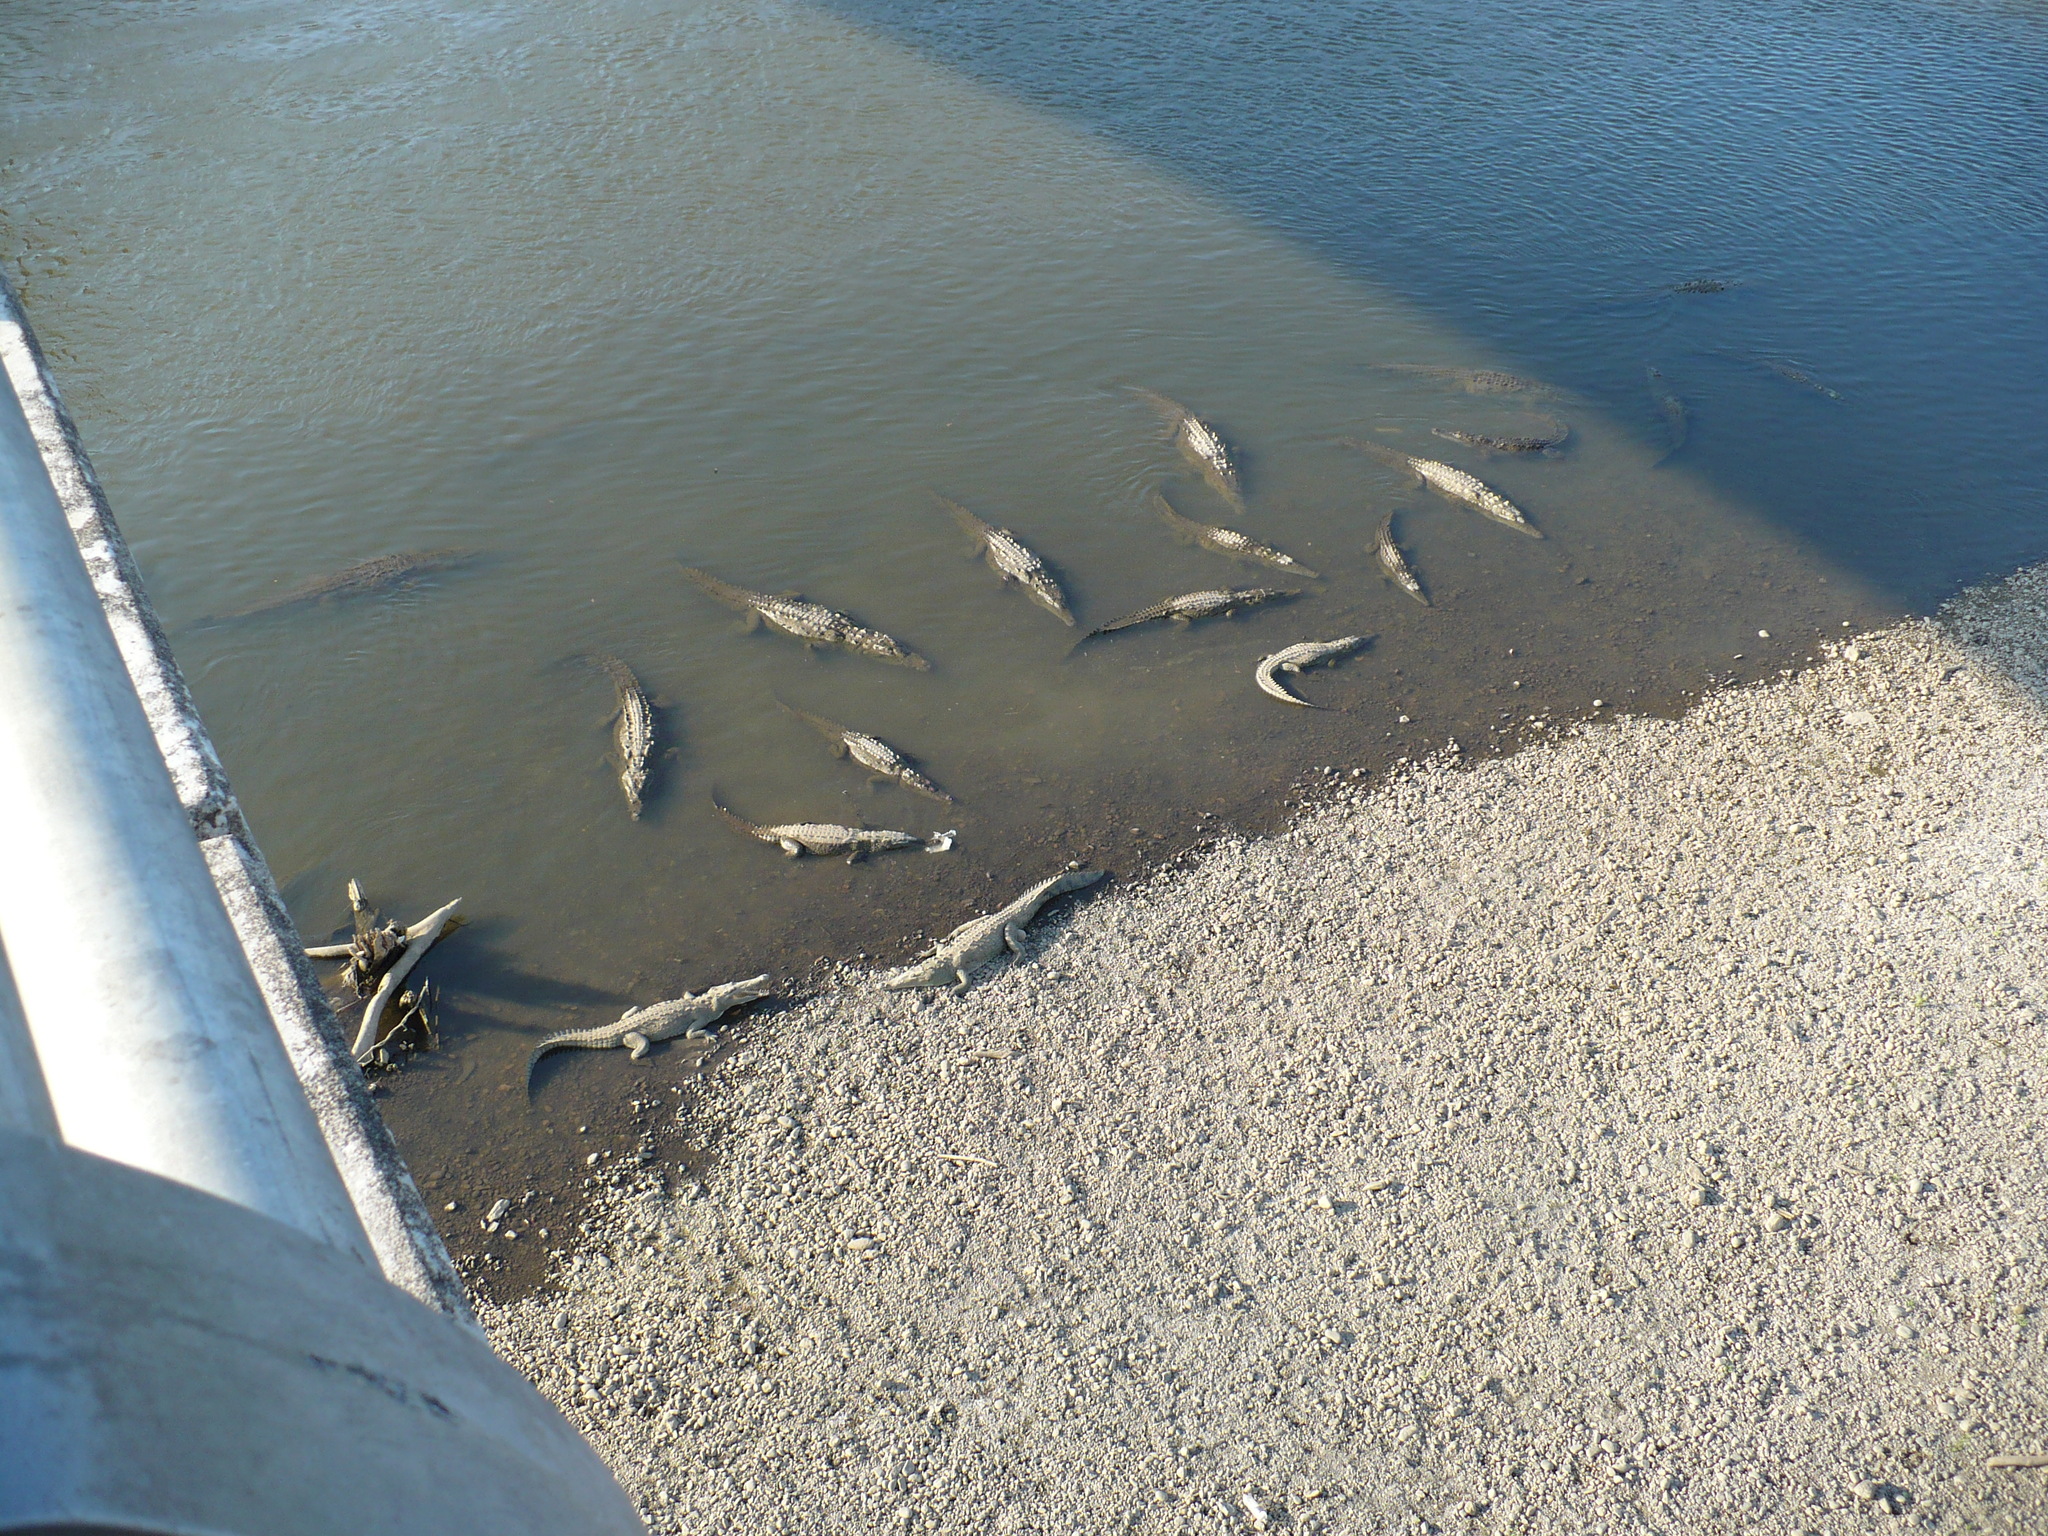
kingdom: Animalia
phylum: Chordata
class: Crocodylia
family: Crocodylidae
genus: Crocodylus
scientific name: Crocodylus acutus
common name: American crocodile
